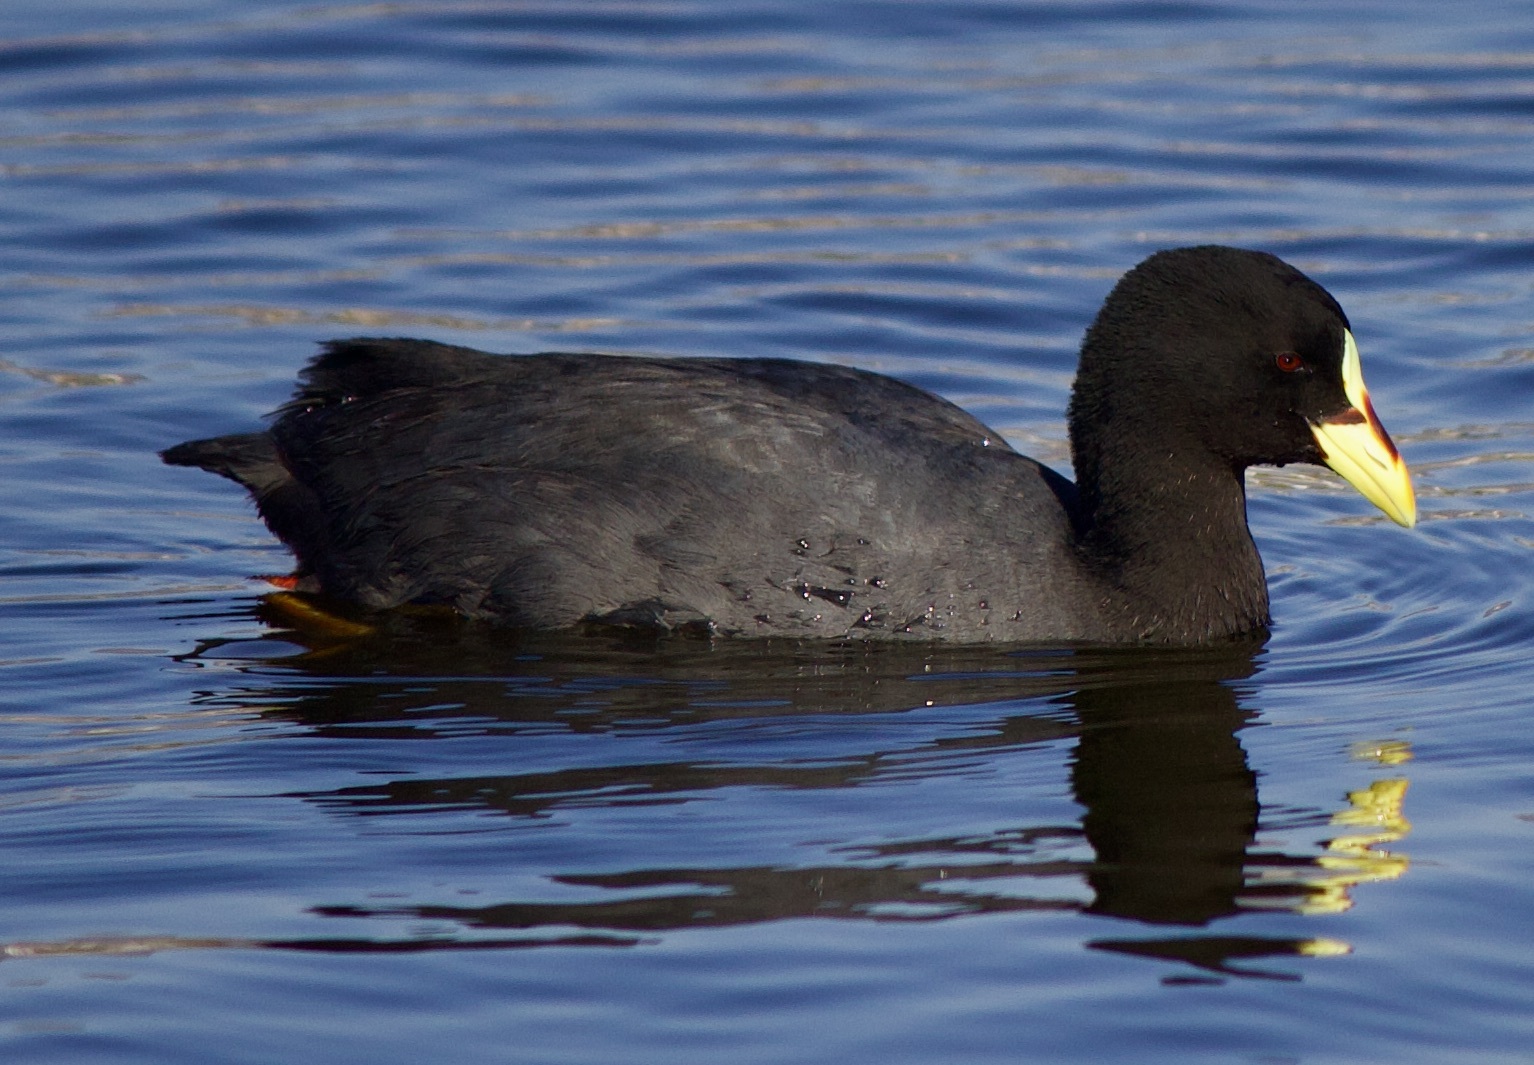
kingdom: Animalia
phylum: Chordata
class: Aves
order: Gruiformes
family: Rallidae
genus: Fulica
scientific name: Fulica armillata
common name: Red-gartered coot
